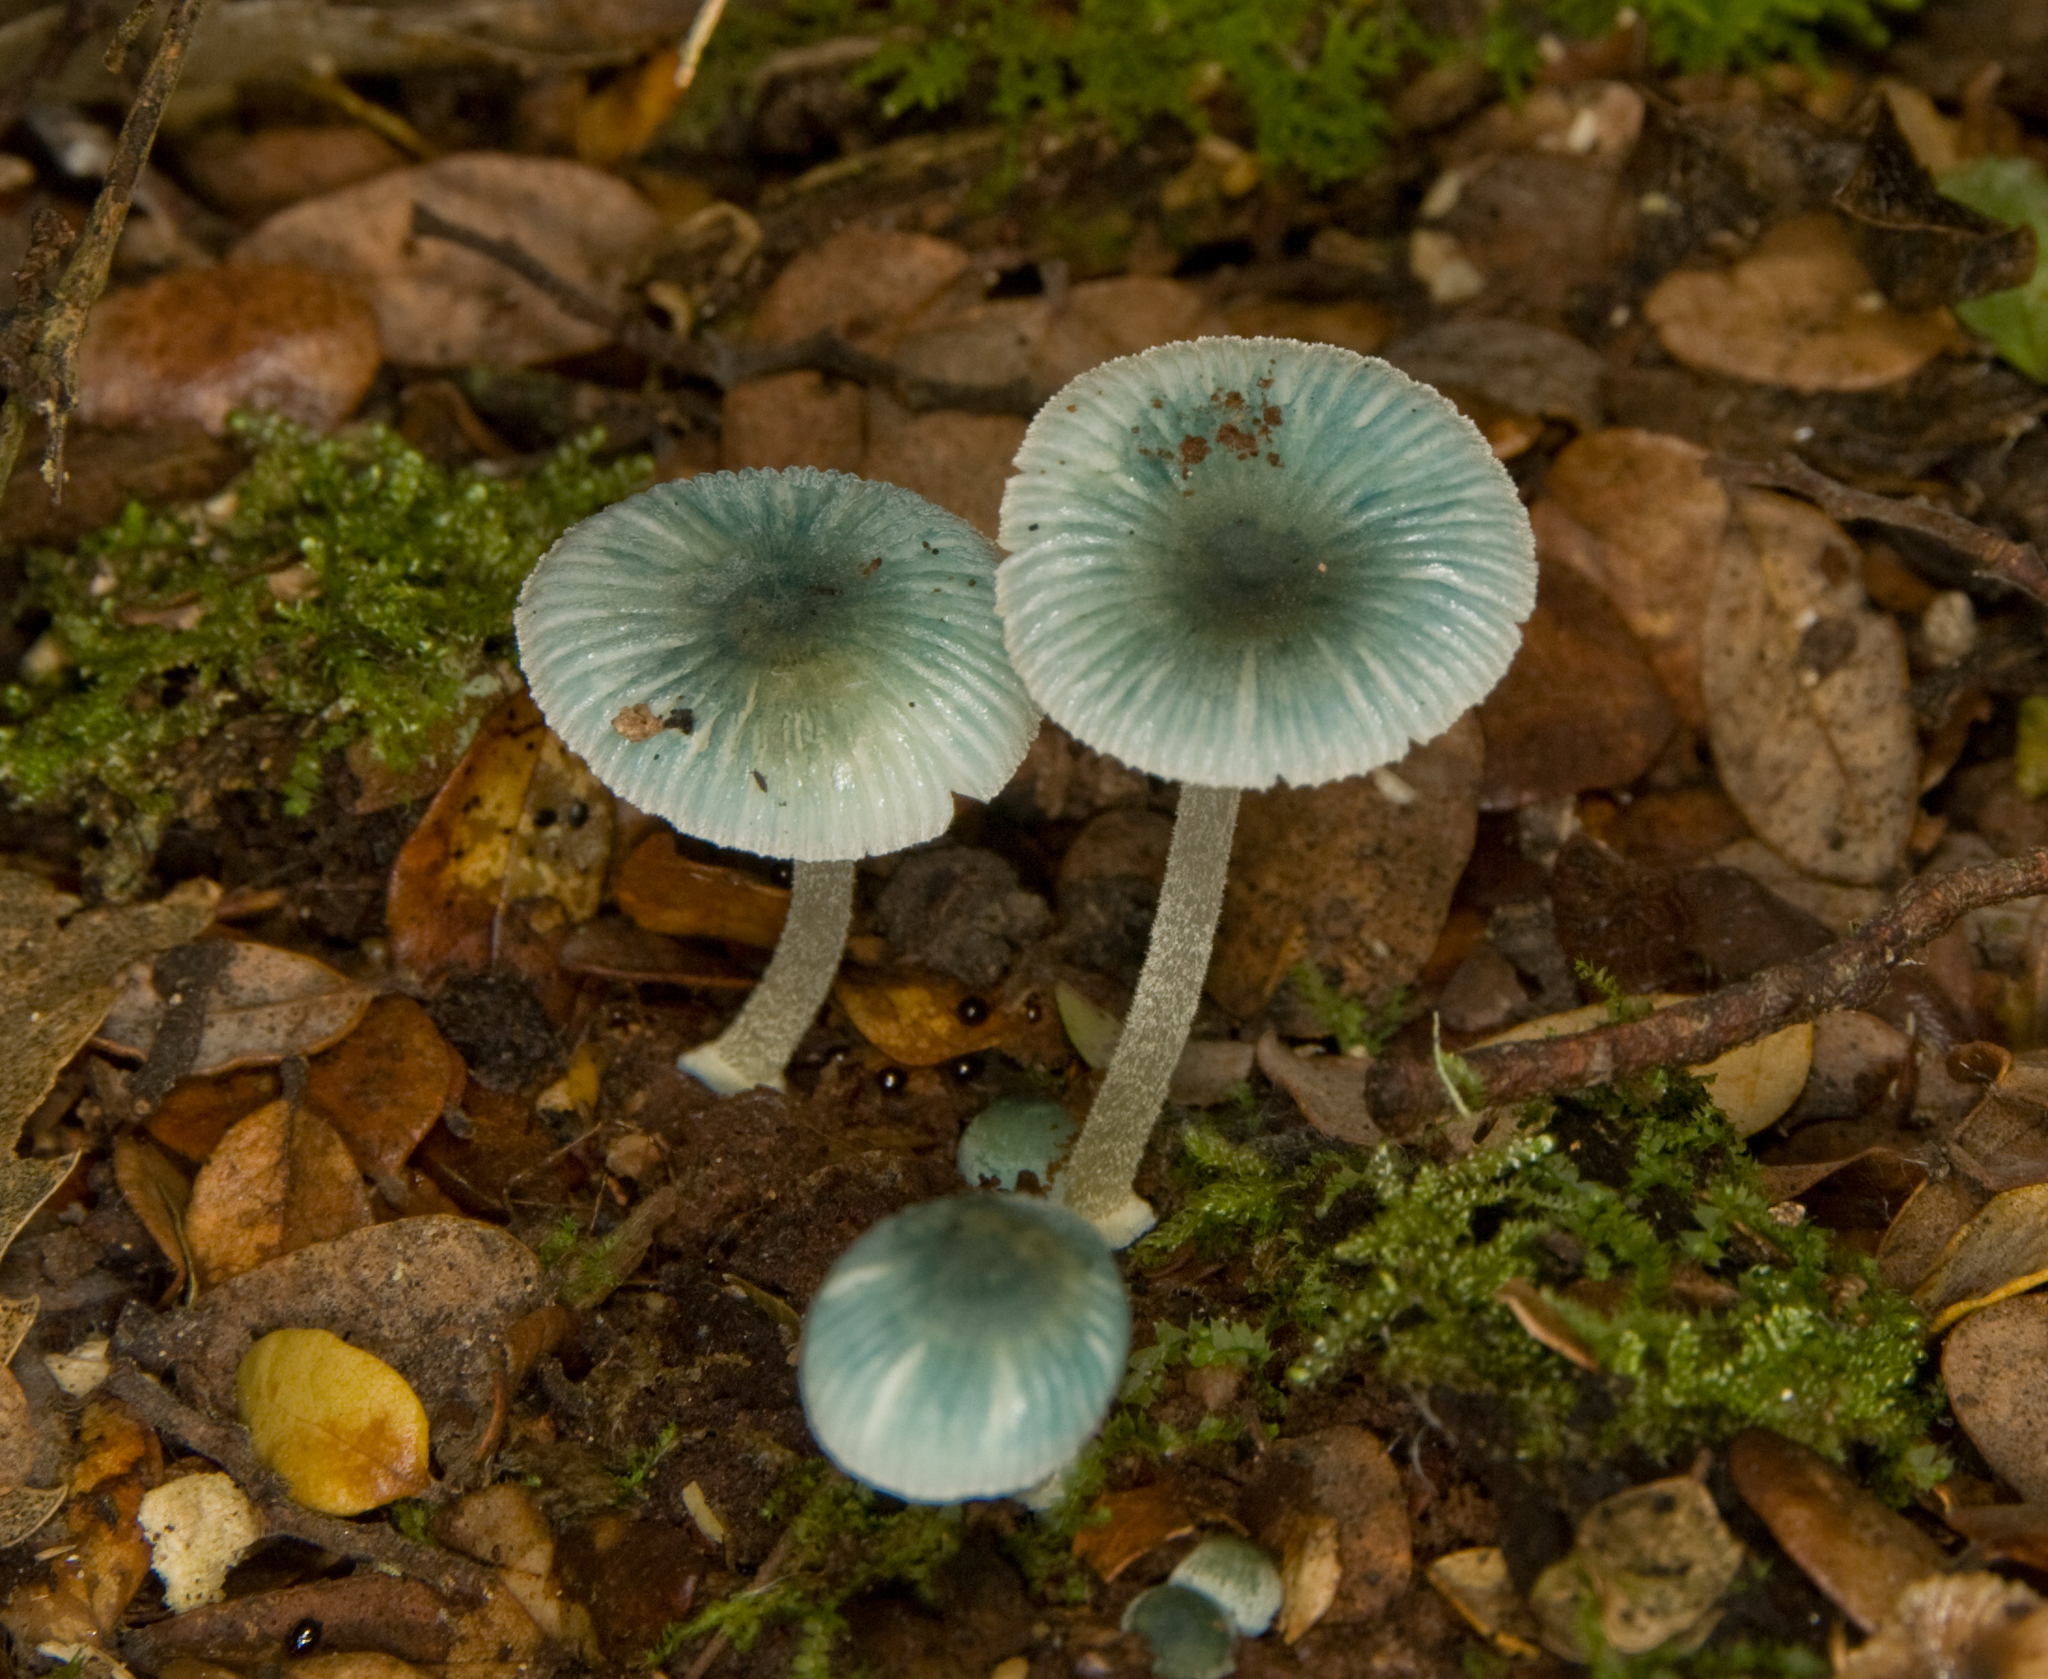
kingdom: Fungi
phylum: Basidiomycota
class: Agaricomycetes
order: Agaricales
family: Mycenaceae
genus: Mycena
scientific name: Mycena interrupta
